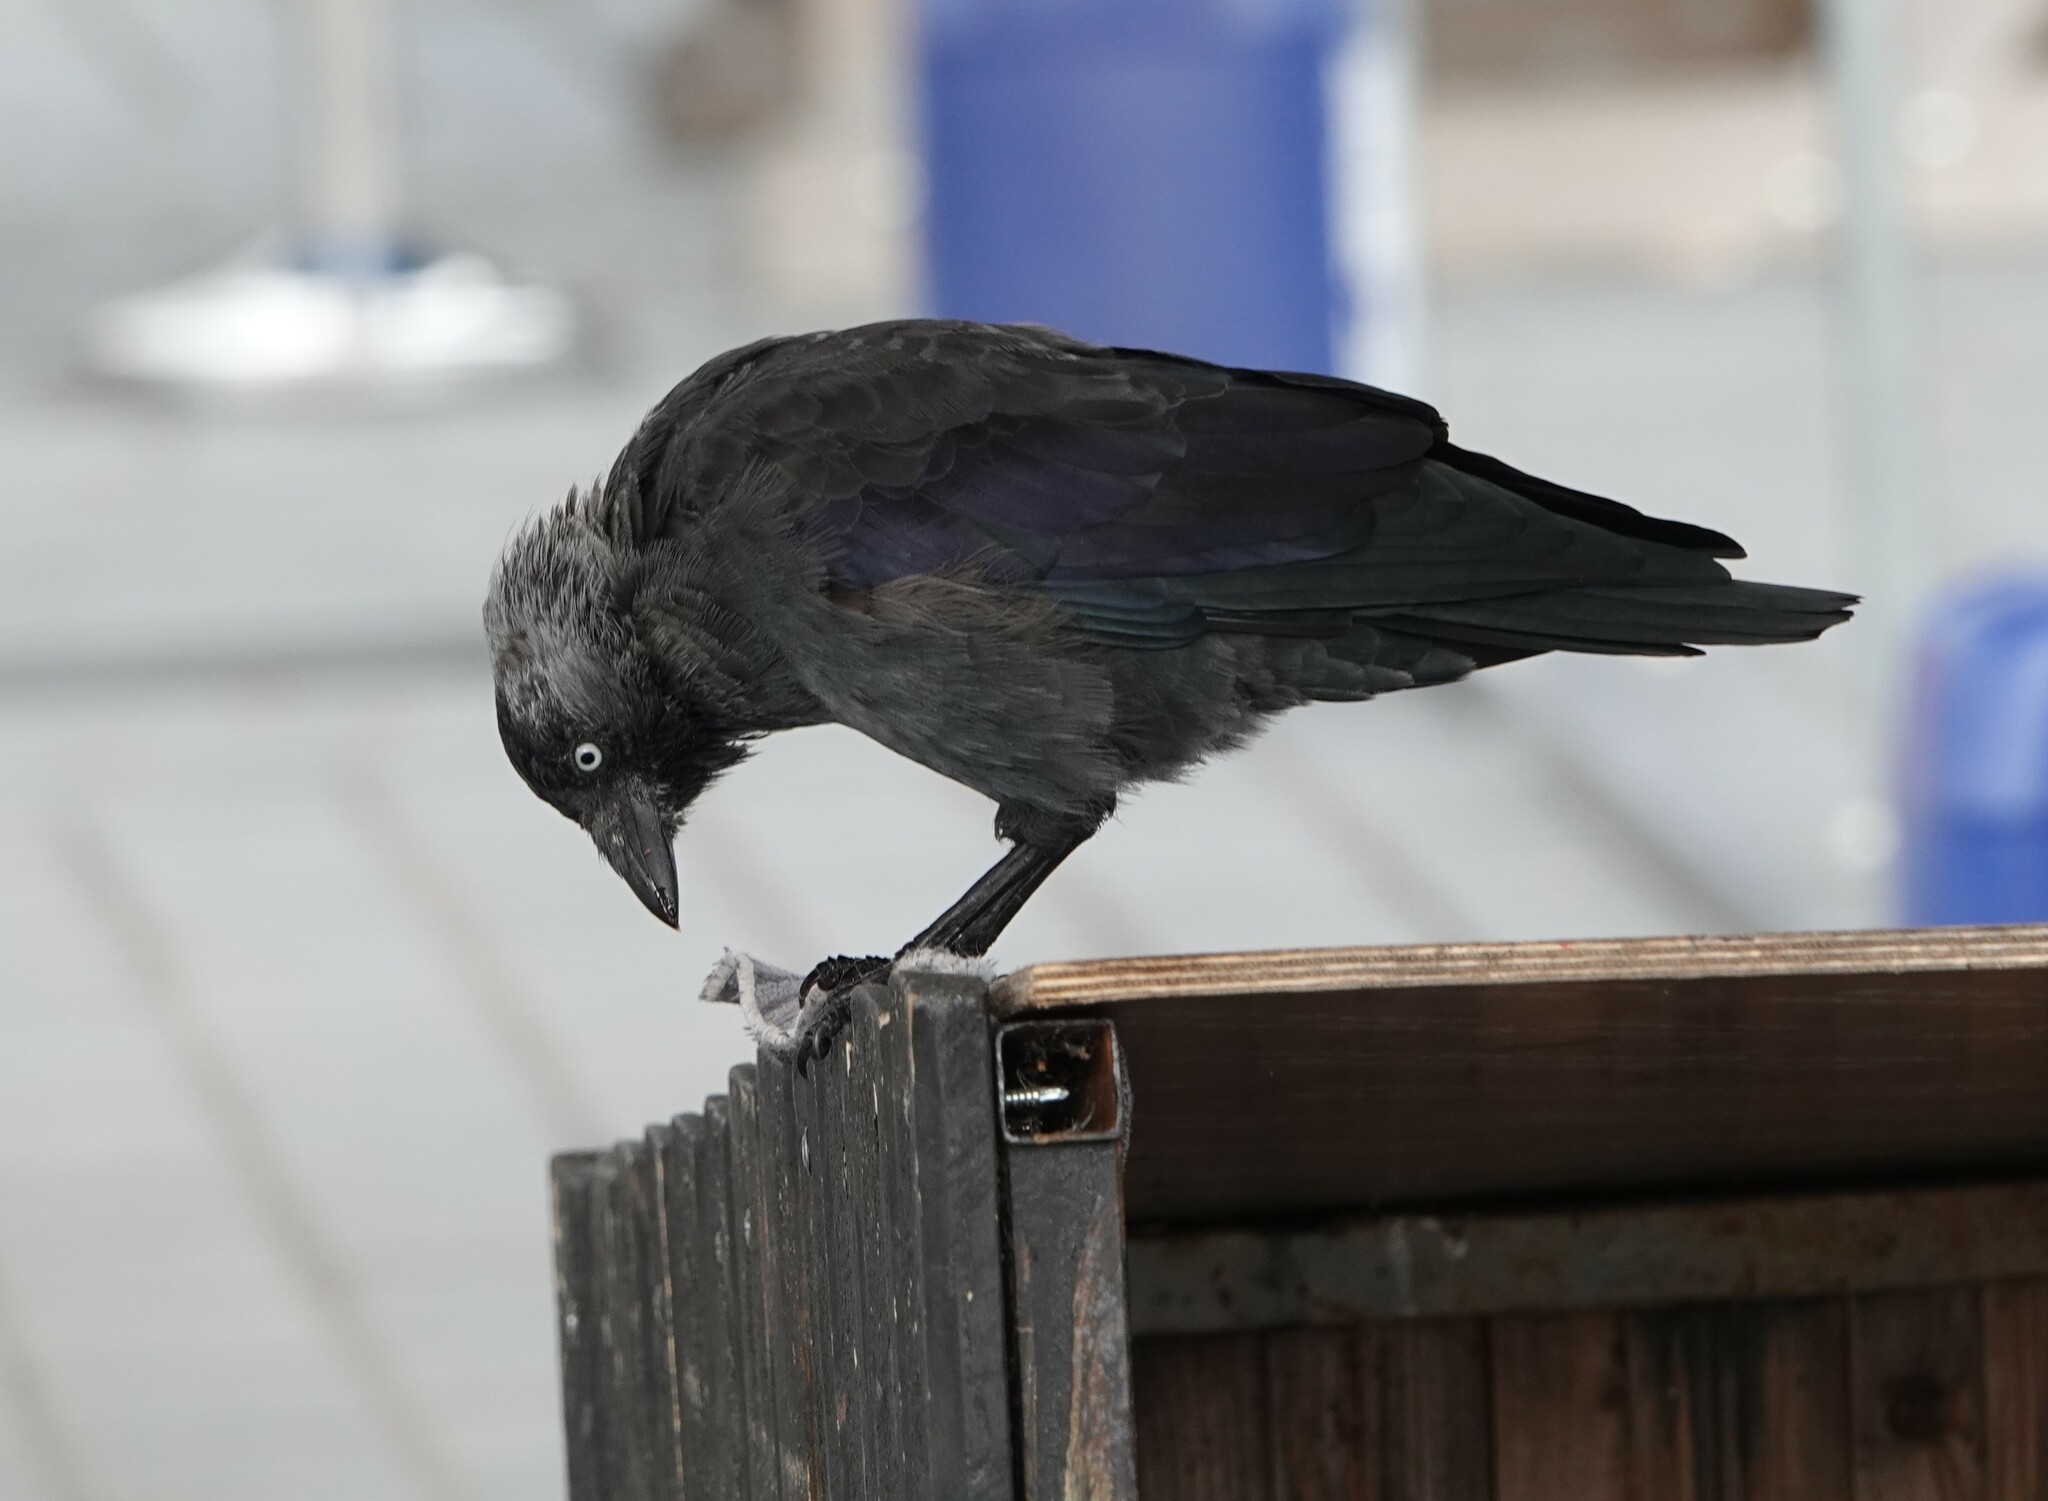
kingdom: Animalia
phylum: Chordata
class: Aves
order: Passeriformes
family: Corvidae
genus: Coloeus
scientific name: Coloeus monedula
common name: Western jackdaw
